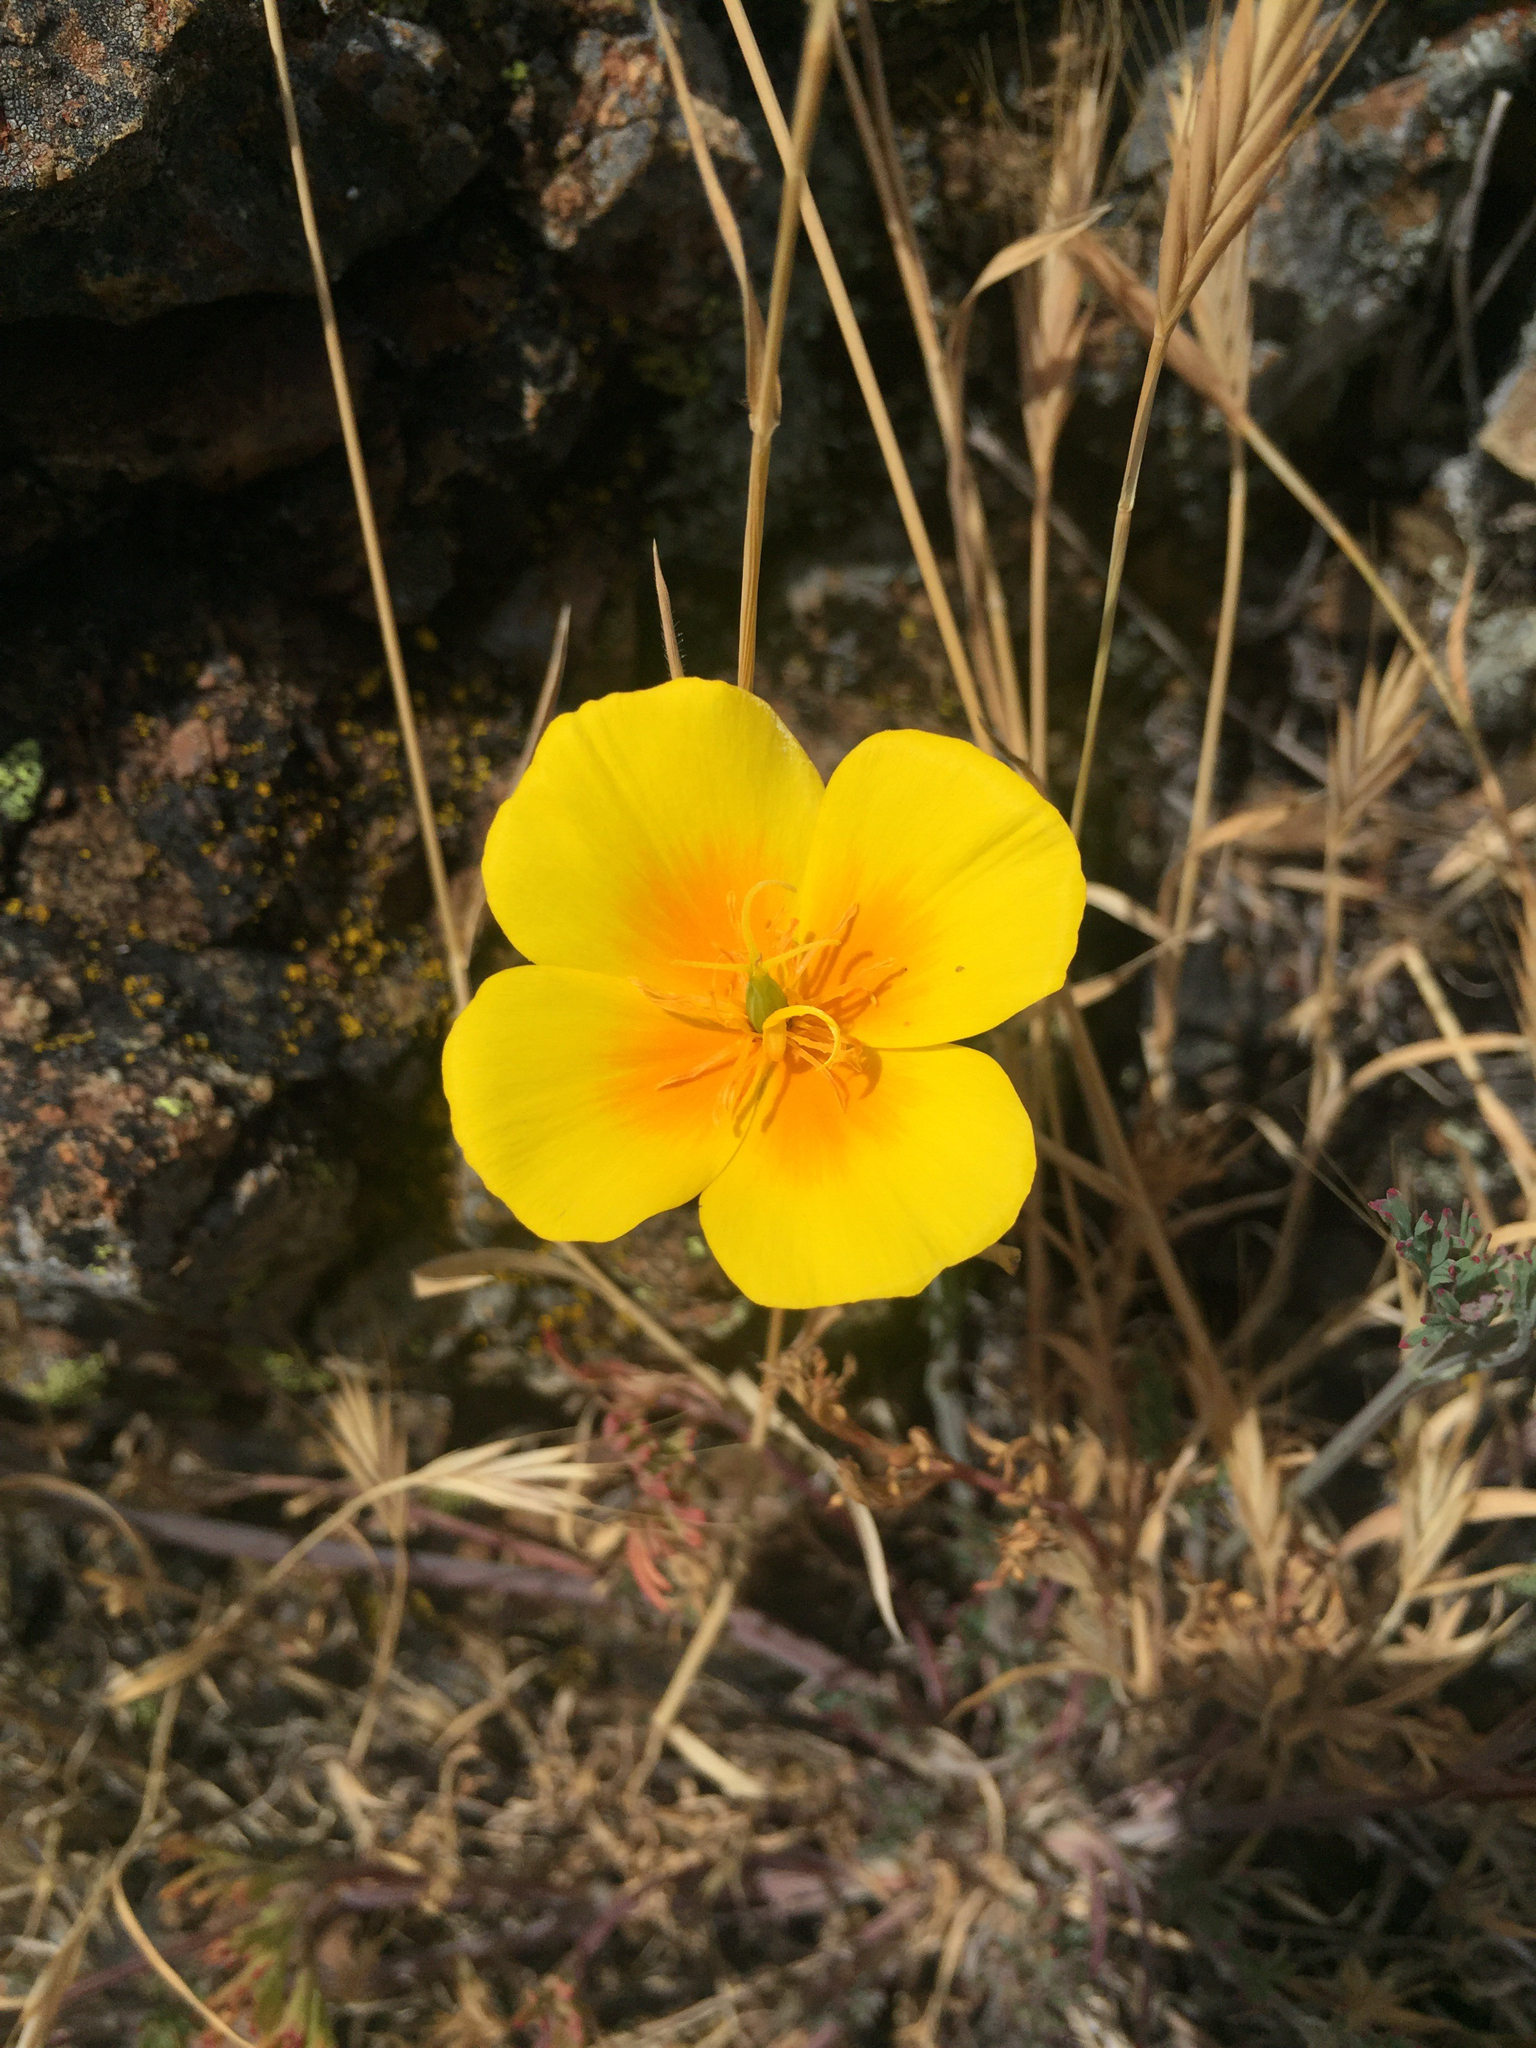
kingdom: Plantae
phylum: Tracheophyta
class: Magnoliopsida
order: Ranunculales
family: Papaveraceae
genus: Eschscholzia
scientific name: Eschscholzia californica
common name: California poppy
